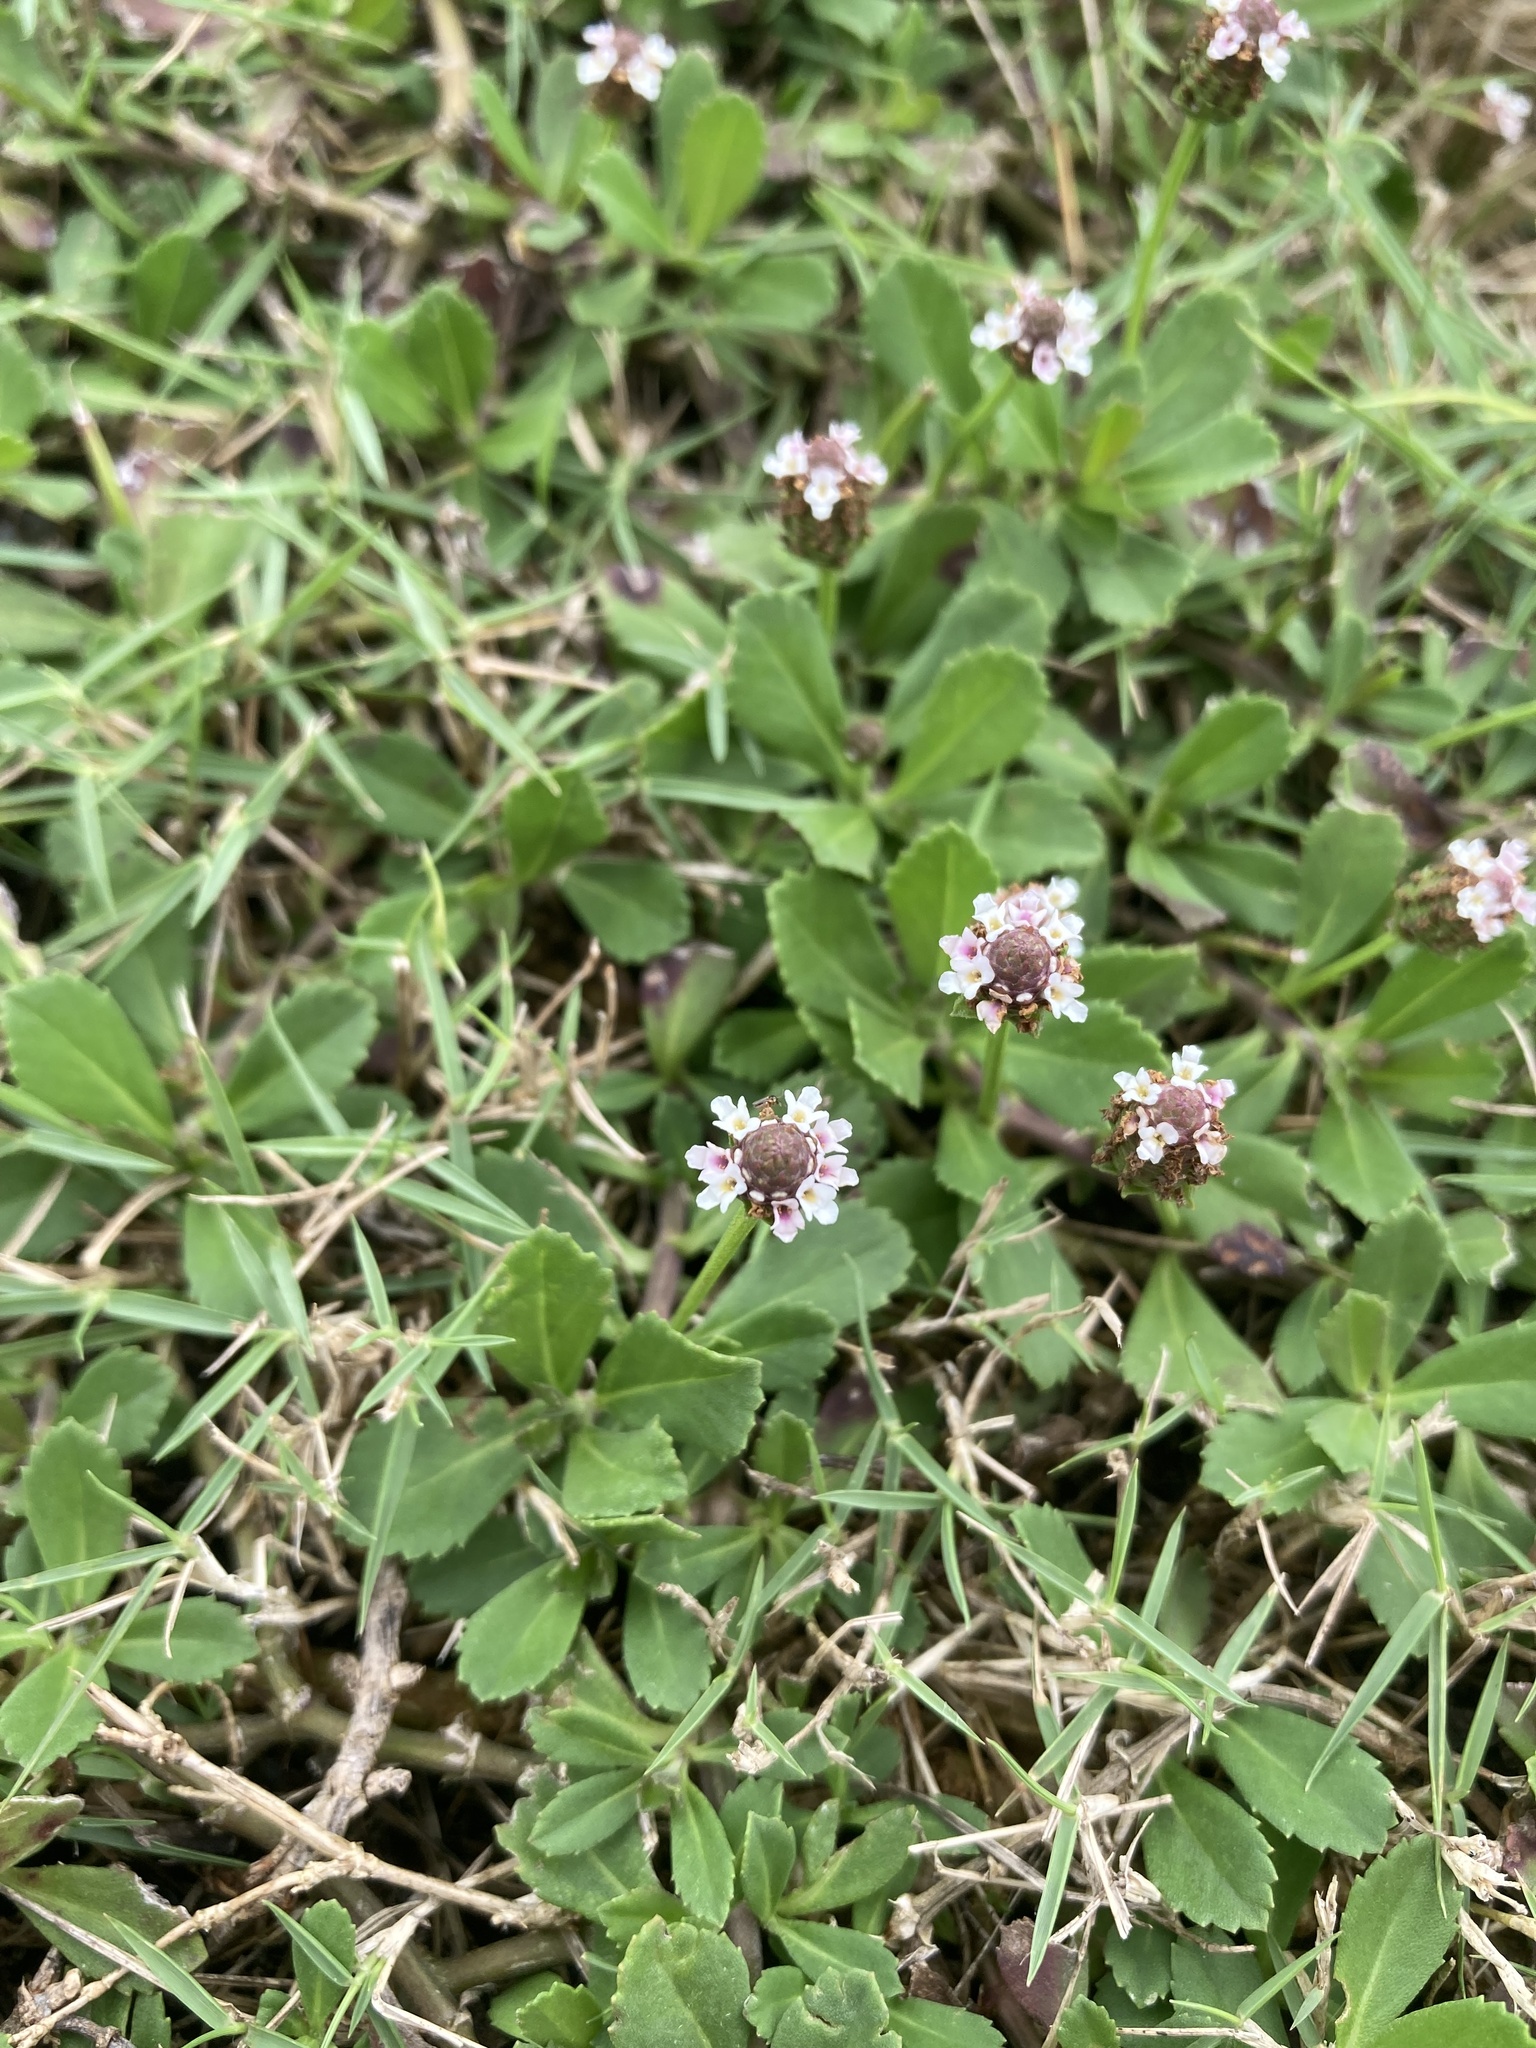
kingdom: Plantae
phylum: Tracheophyta
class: Magnoliopsida
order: Lamiales
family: Verbenaceae
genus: Phyla
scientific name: Phyla nodiflora
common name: Frogfruit
